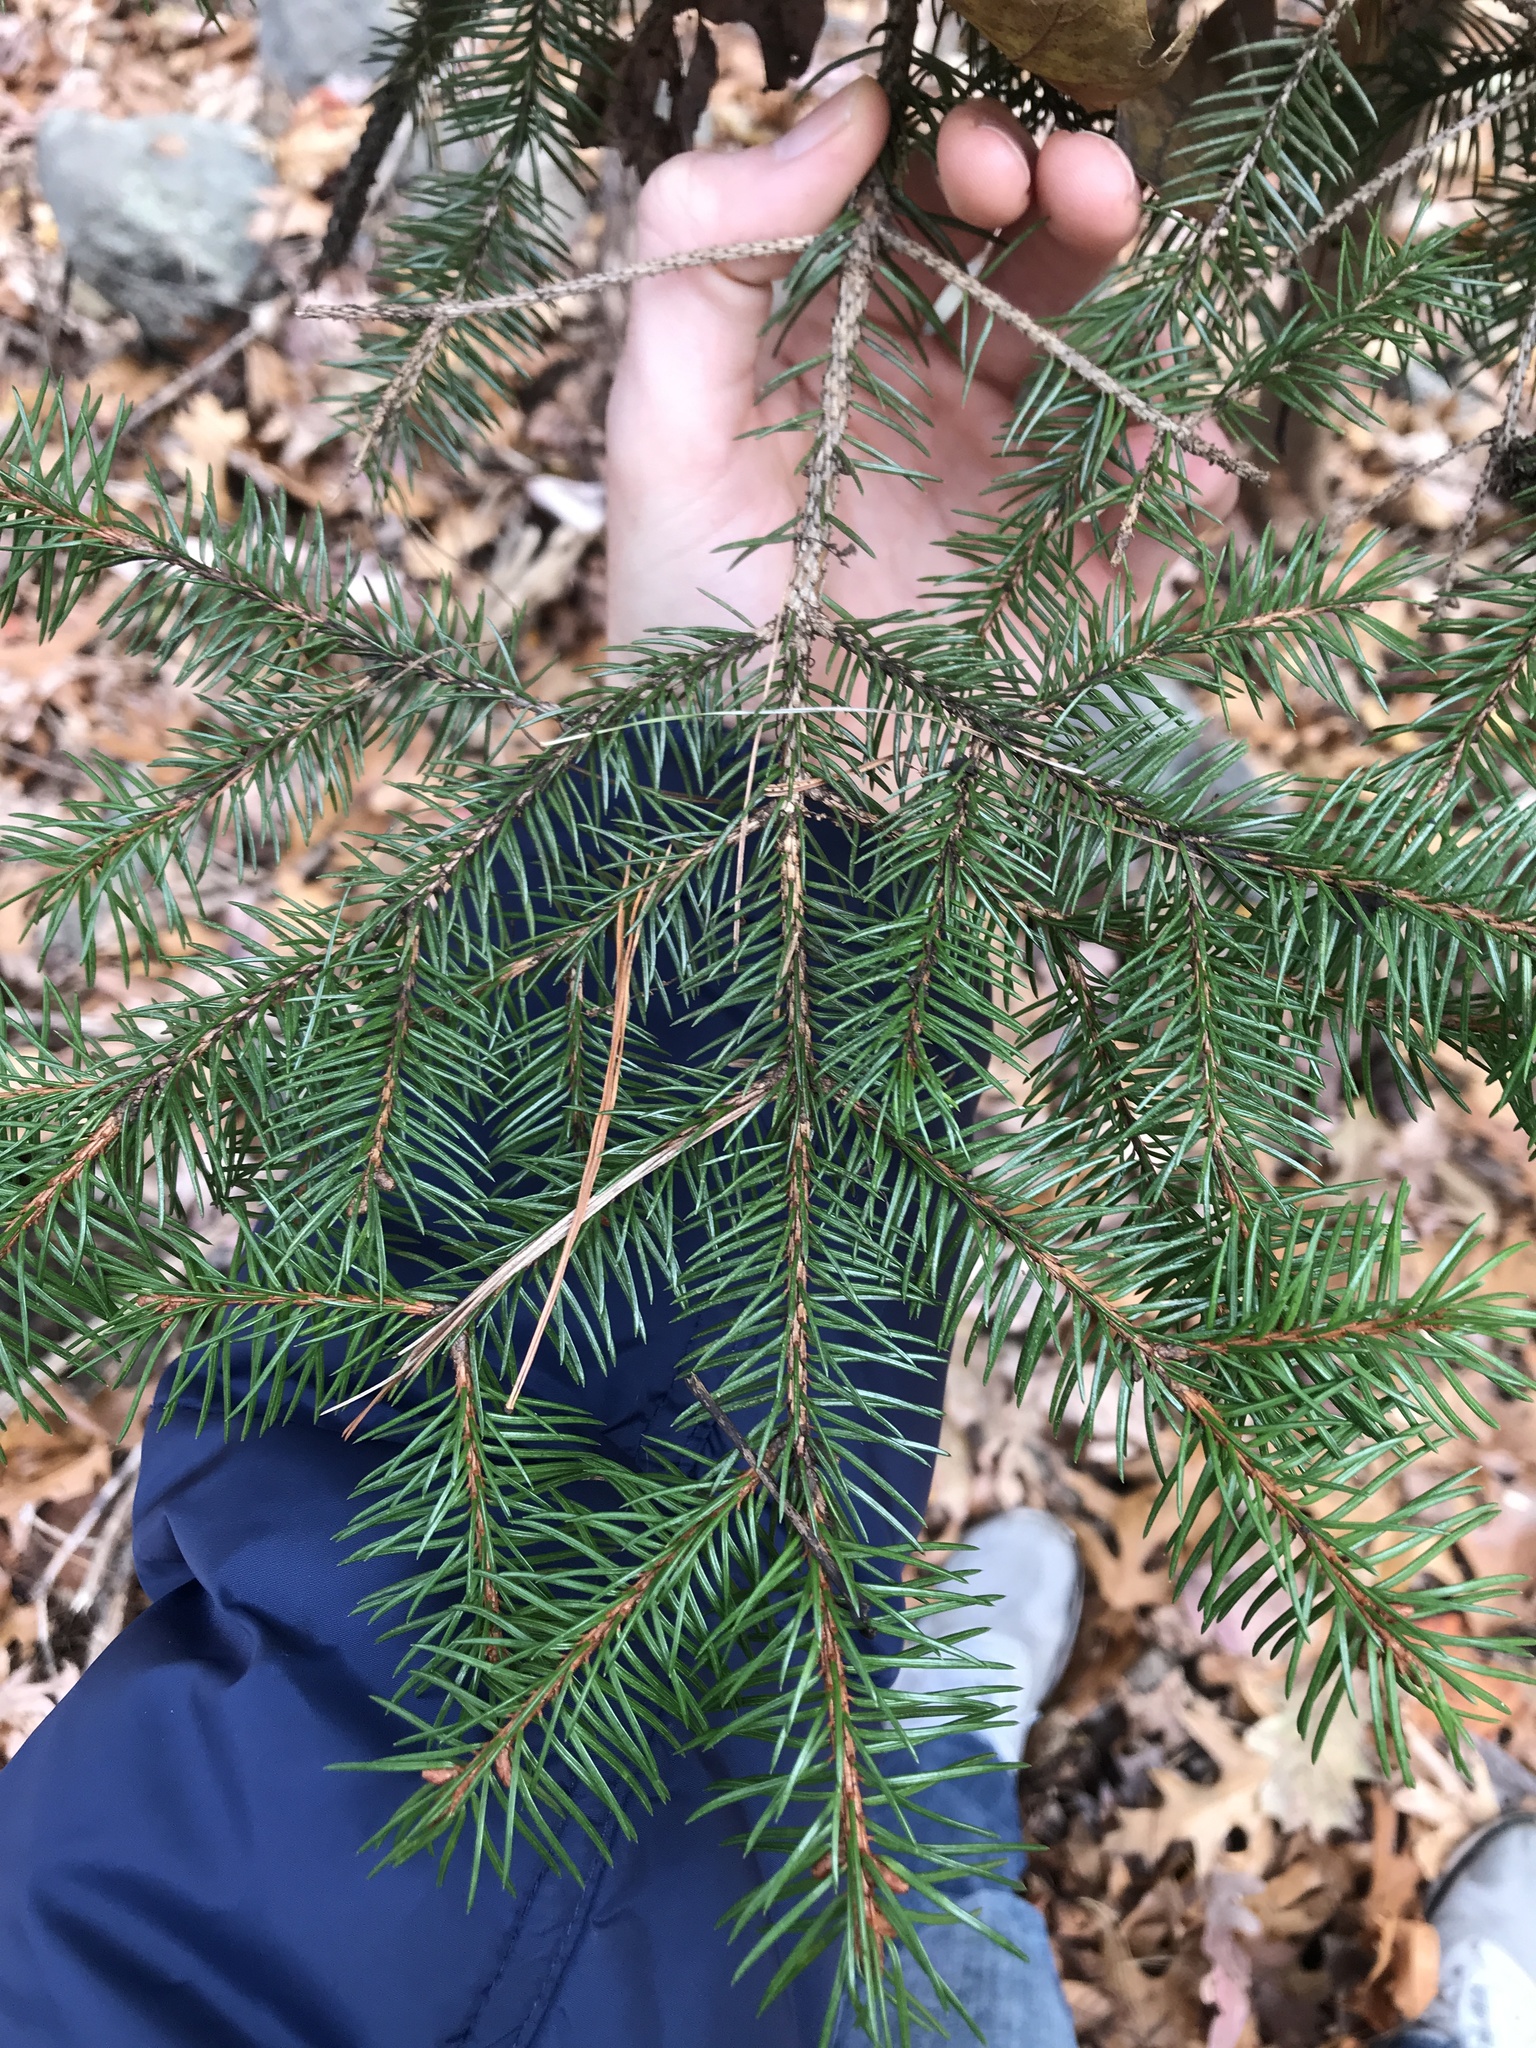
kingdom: Plantae
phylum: Tracheophyta
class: Pinopsida
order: Pinales
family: Pinaceae
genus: Picea
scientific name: Picea abies
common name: Norway spruce
